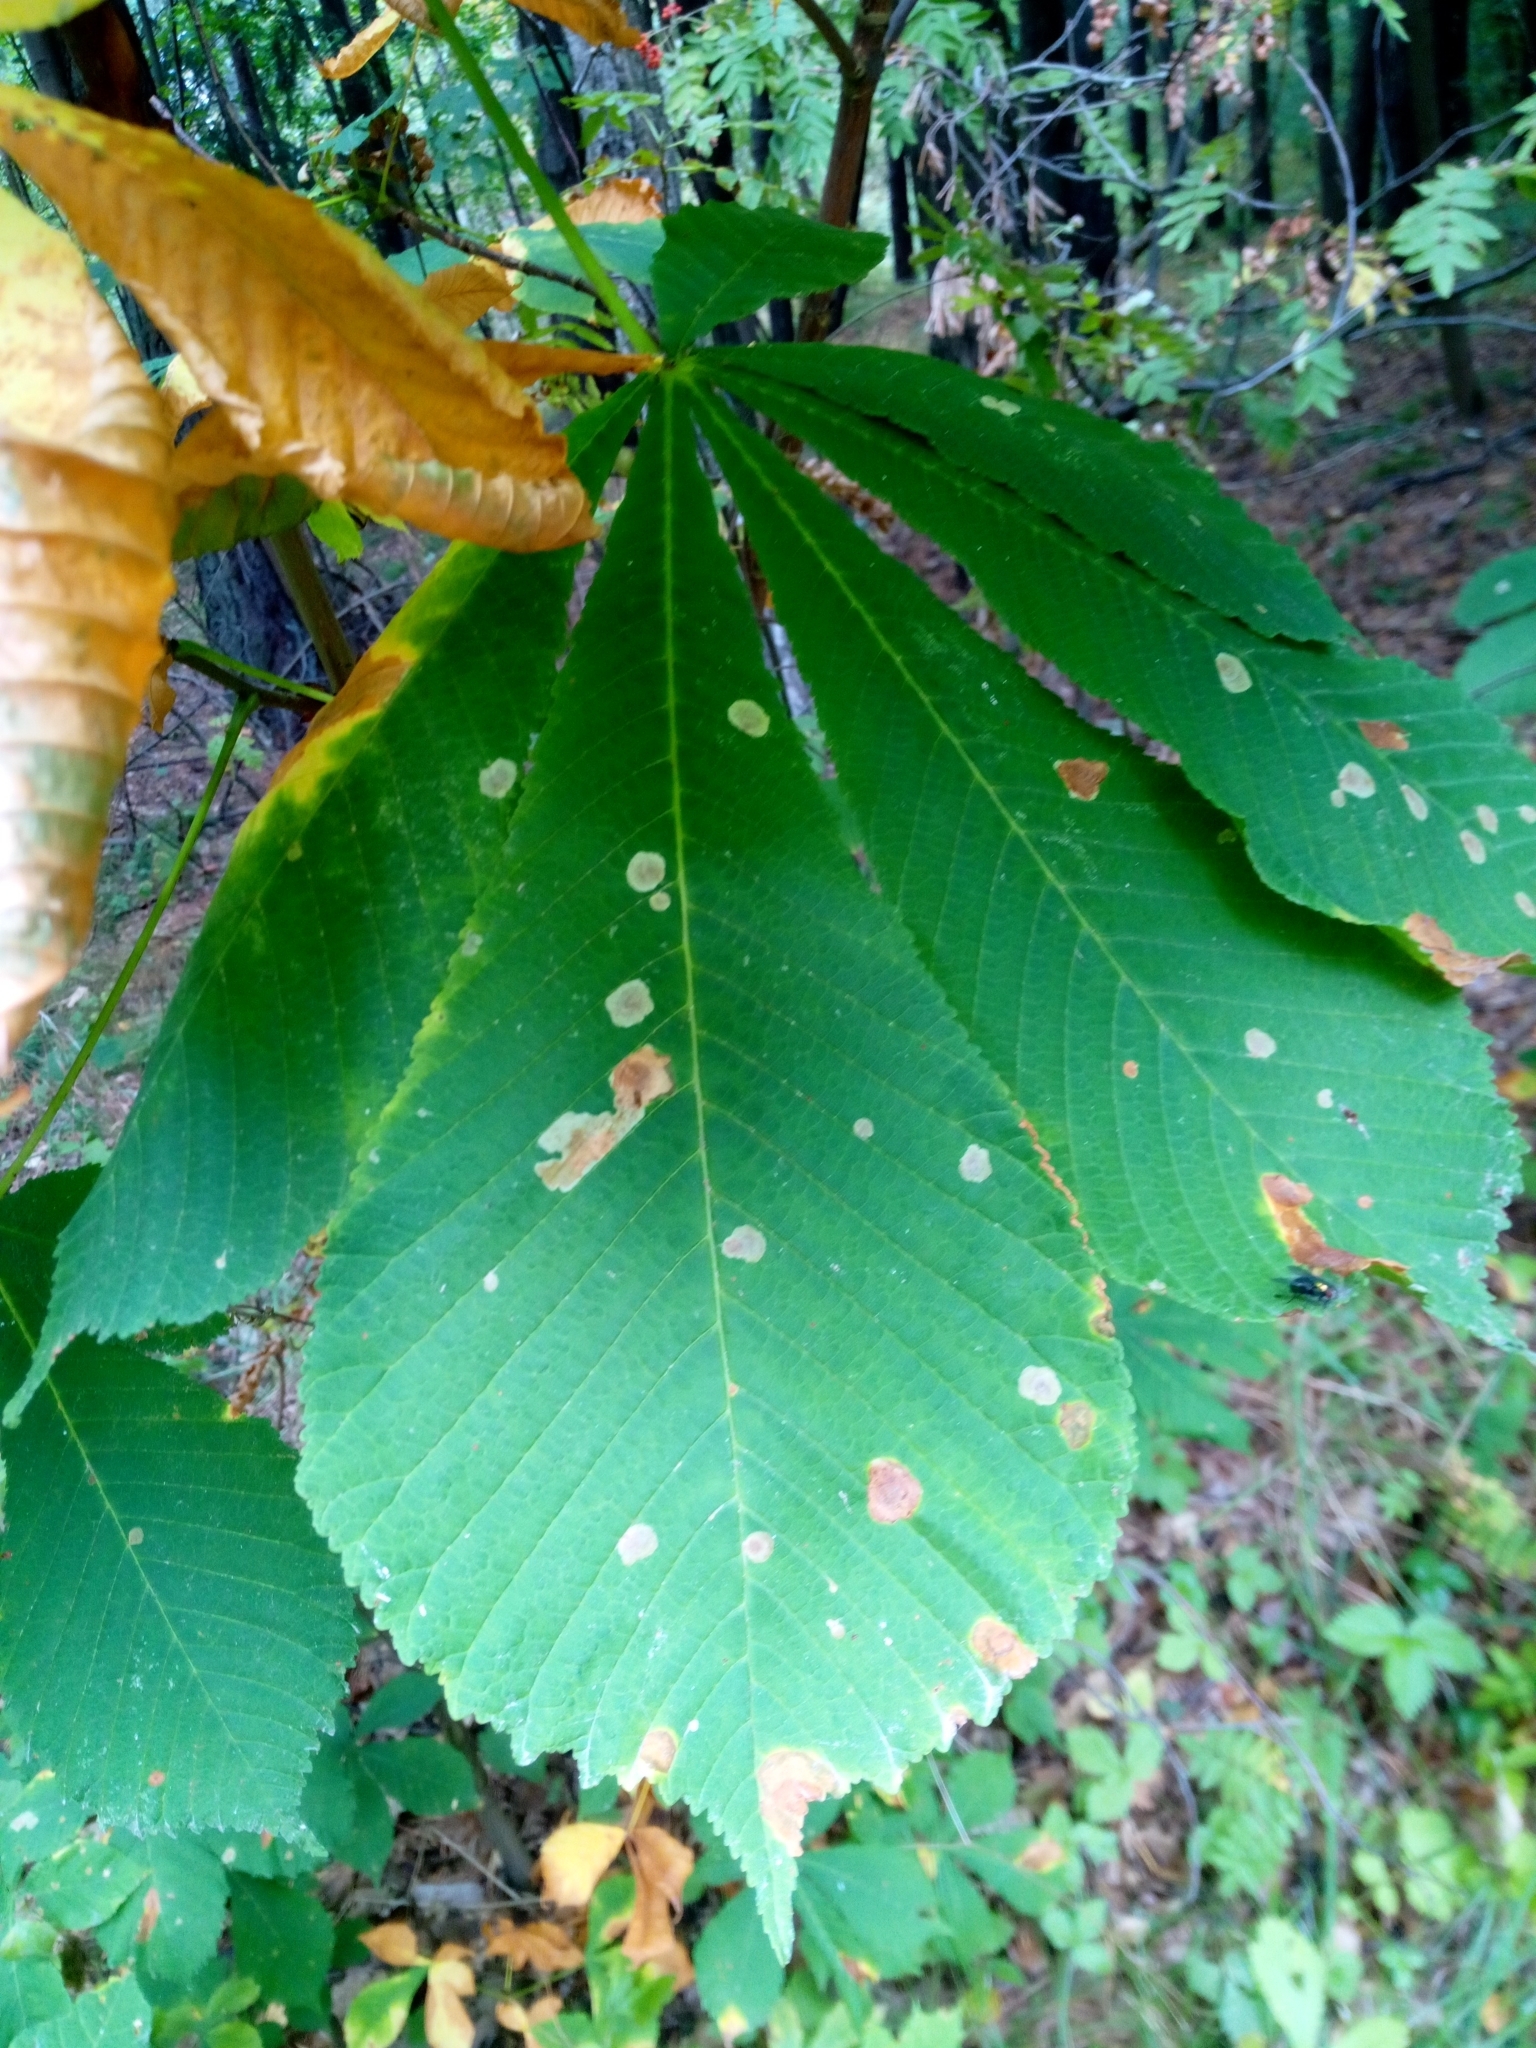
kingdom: Animalia
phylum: Arthropoda
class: Insecta
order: Lepidoptera
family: Gracillariidae
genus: Cameraria
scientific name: Cameraria ohridella
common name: Horse-chestnut leaf-miner
